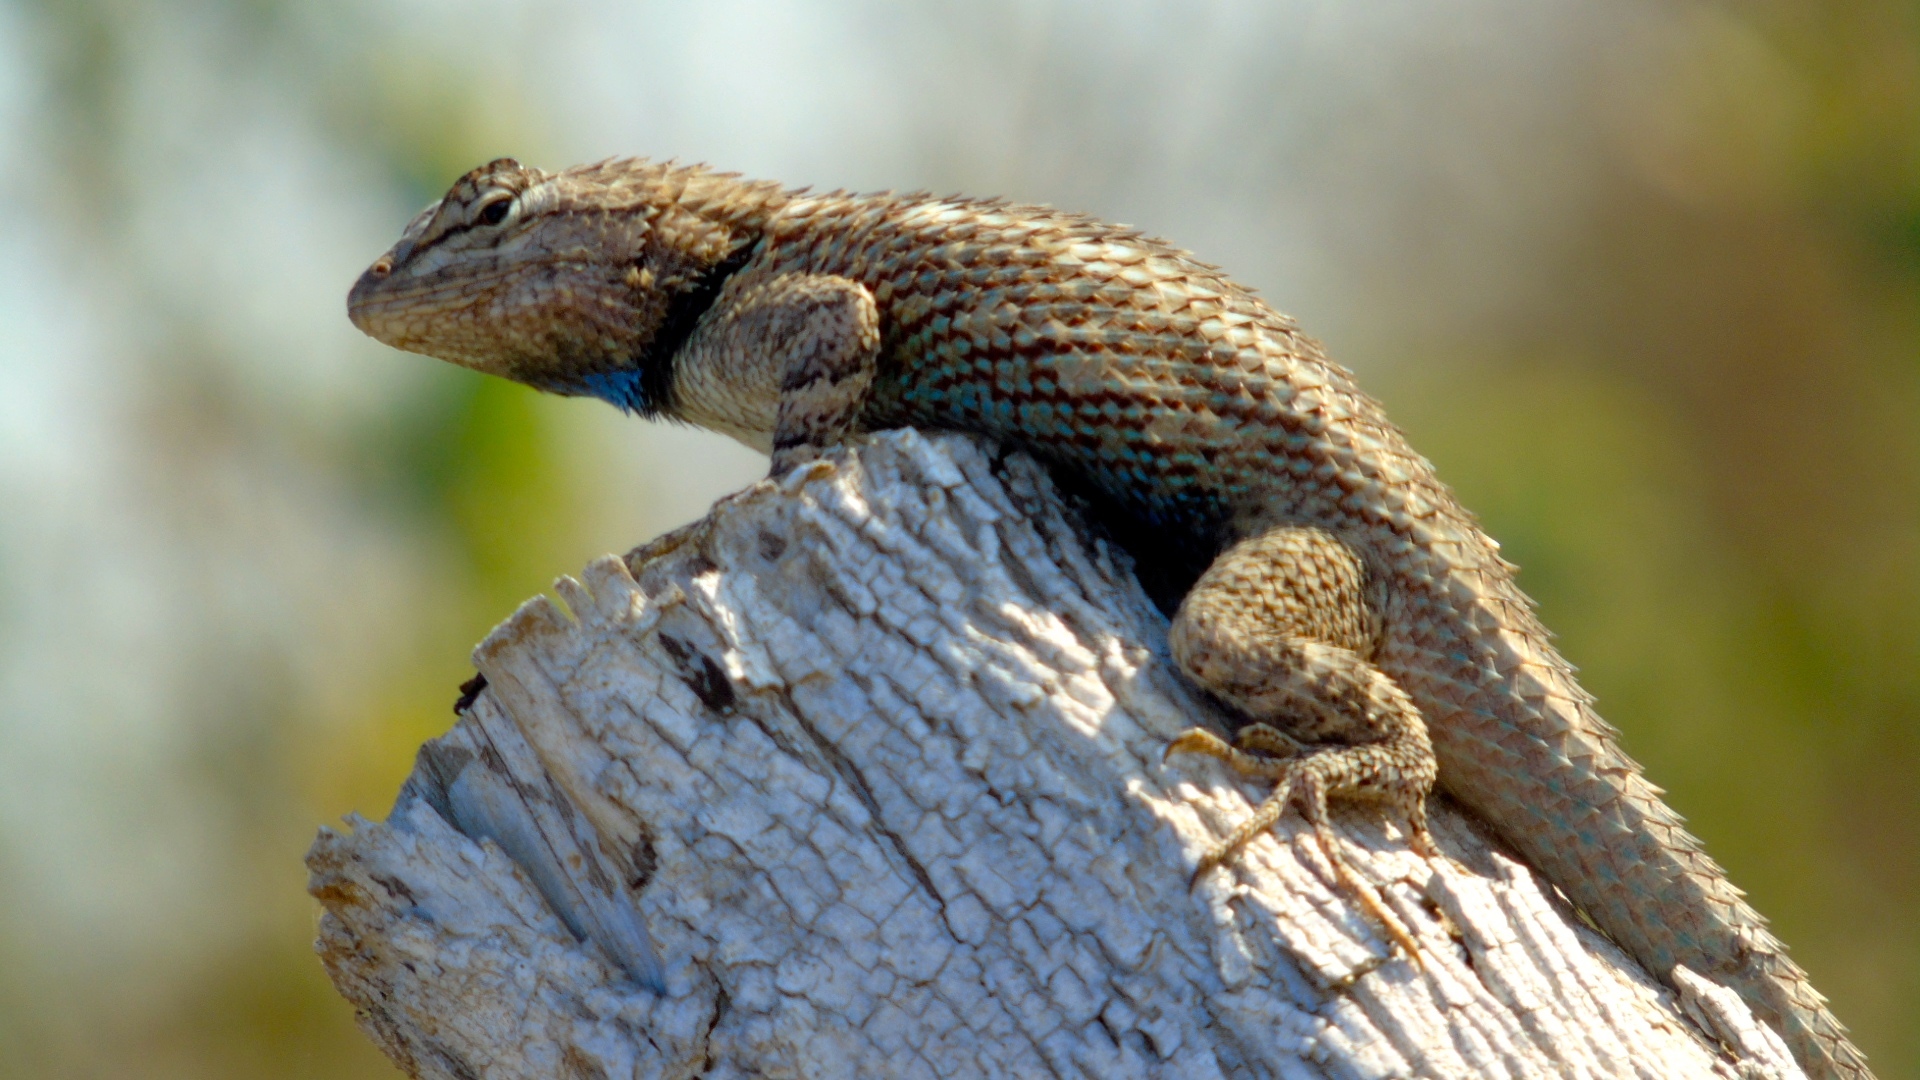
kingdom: Animalia
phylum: Chordata
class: Squamata
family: Phrynosomatidae
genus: Sceloporus
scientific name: Sceloporus clarkii
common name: Clark's spiny lizard
